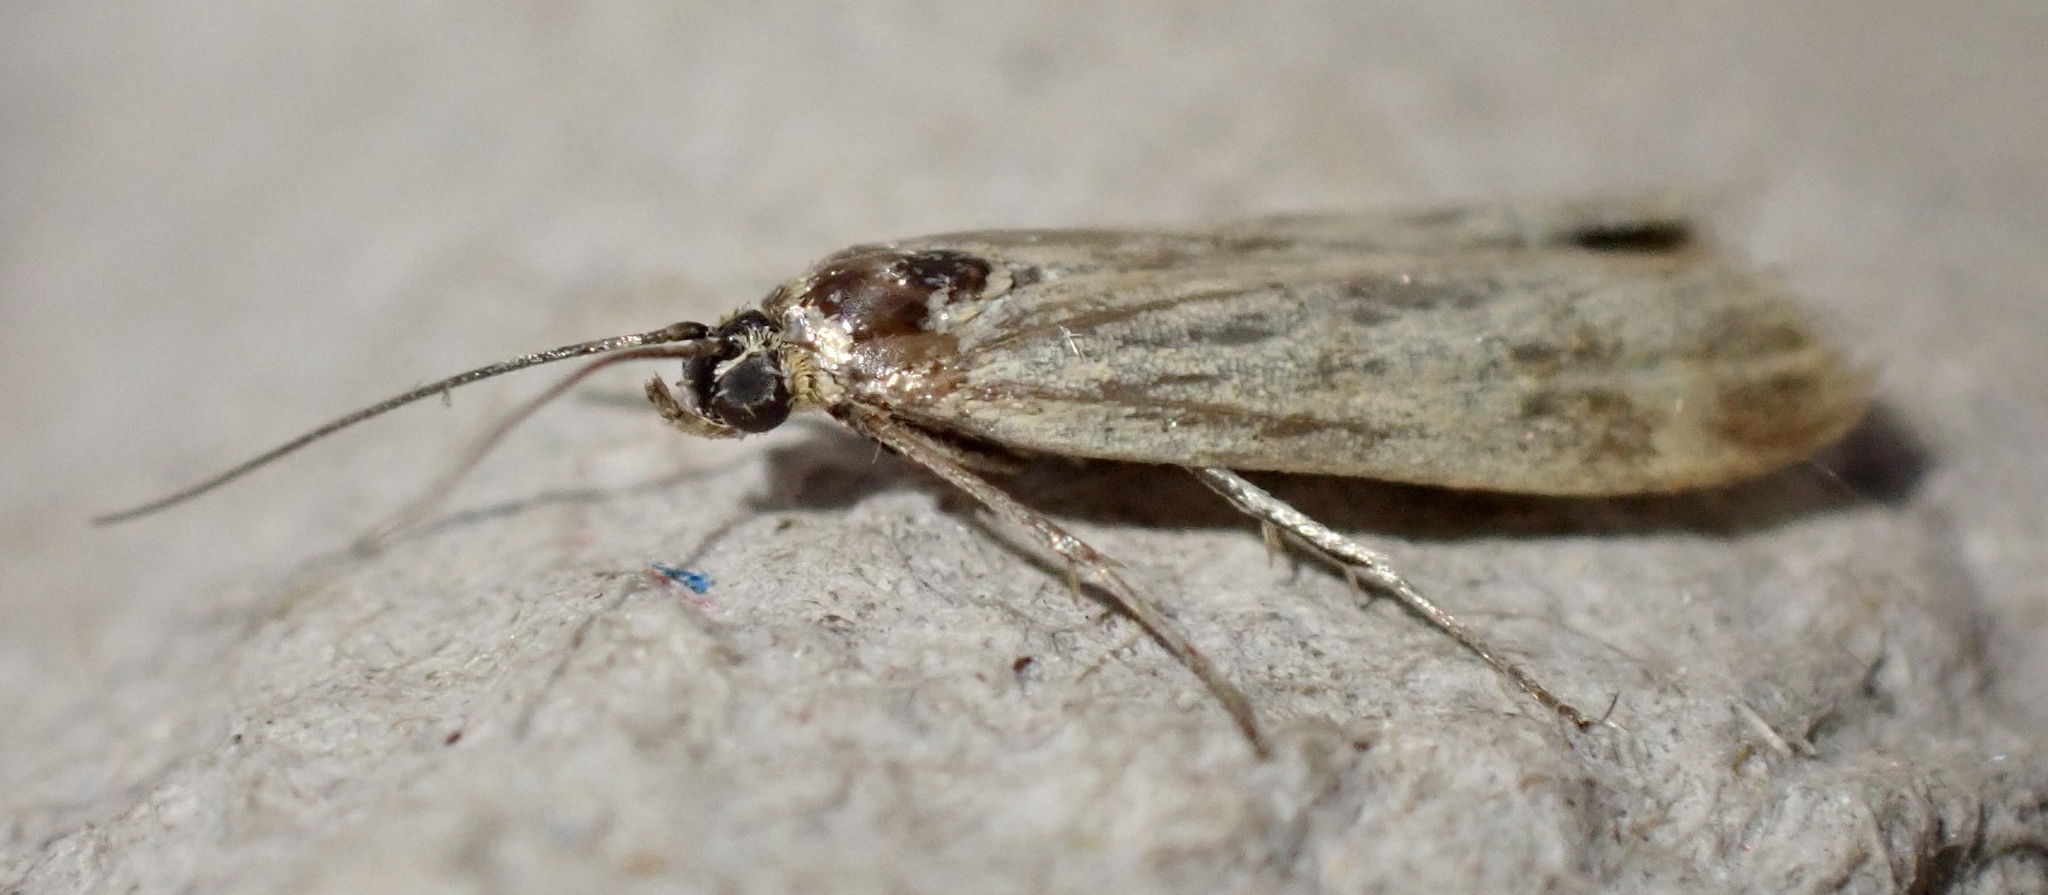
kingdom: Animalia
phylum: Arthropoda
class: Insecta
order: Lepidoptera
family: Pyralidae
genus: Homoeosoma
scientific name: Homoeosoma sinuella
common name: Twin-barred knot-horn
